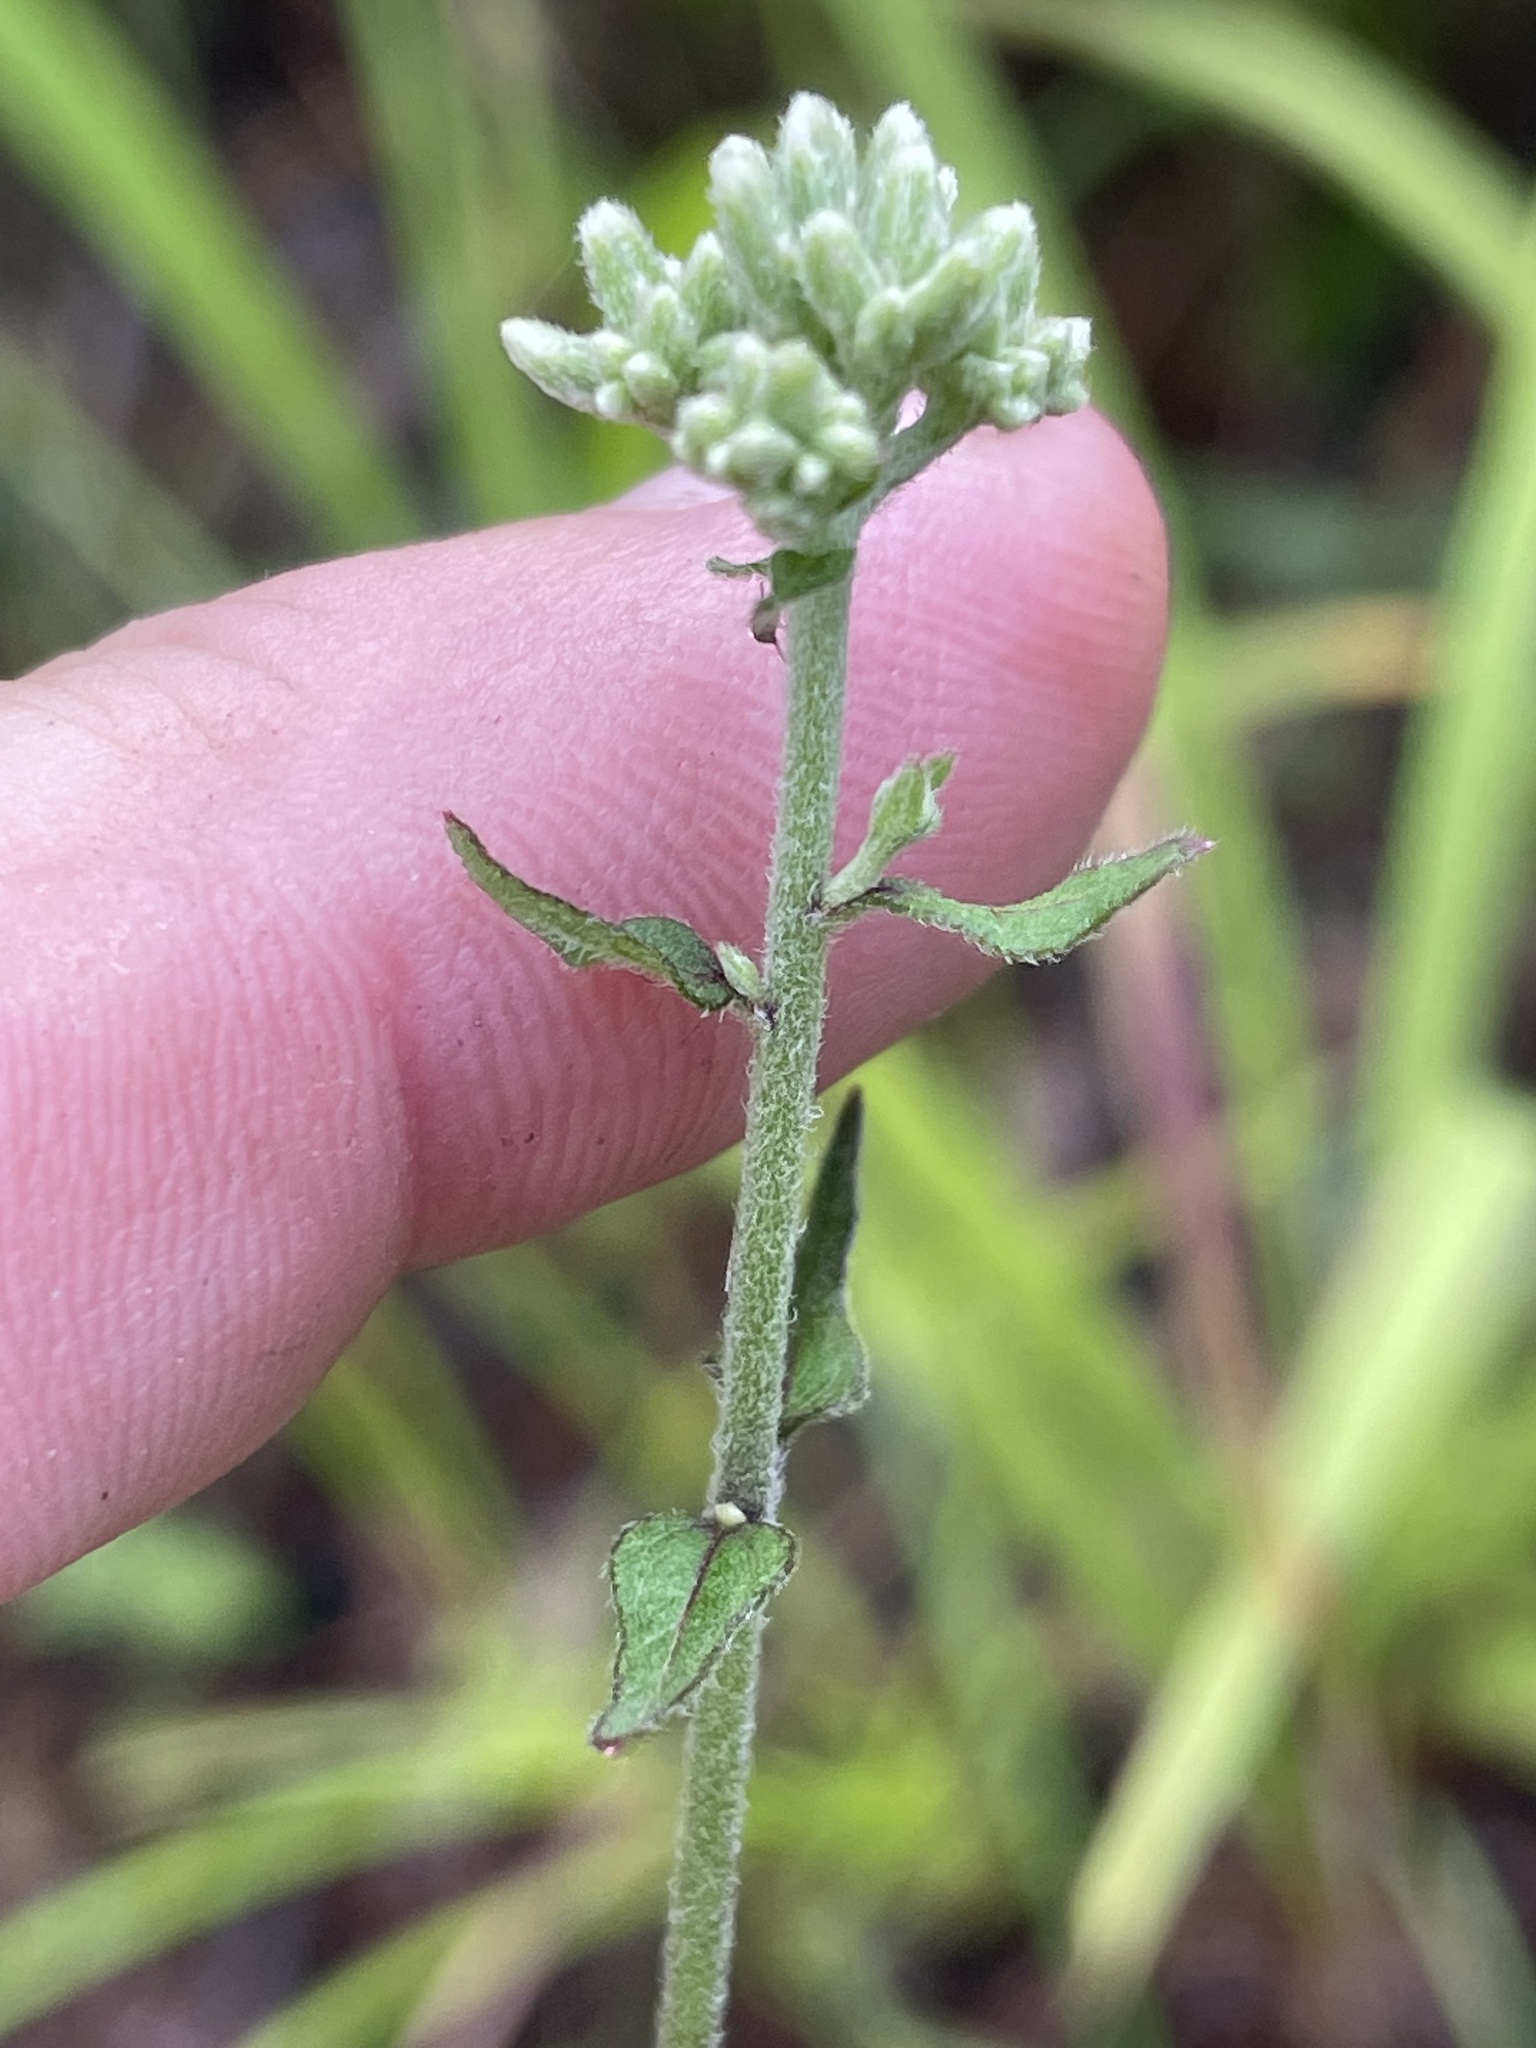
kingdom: Plantae
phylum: Tracheophyta
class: Magnoliopsida
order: Asterales
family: Asteraceae
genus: Eupatorium
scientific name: Eupatorium pilosum
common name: Rough boneset
